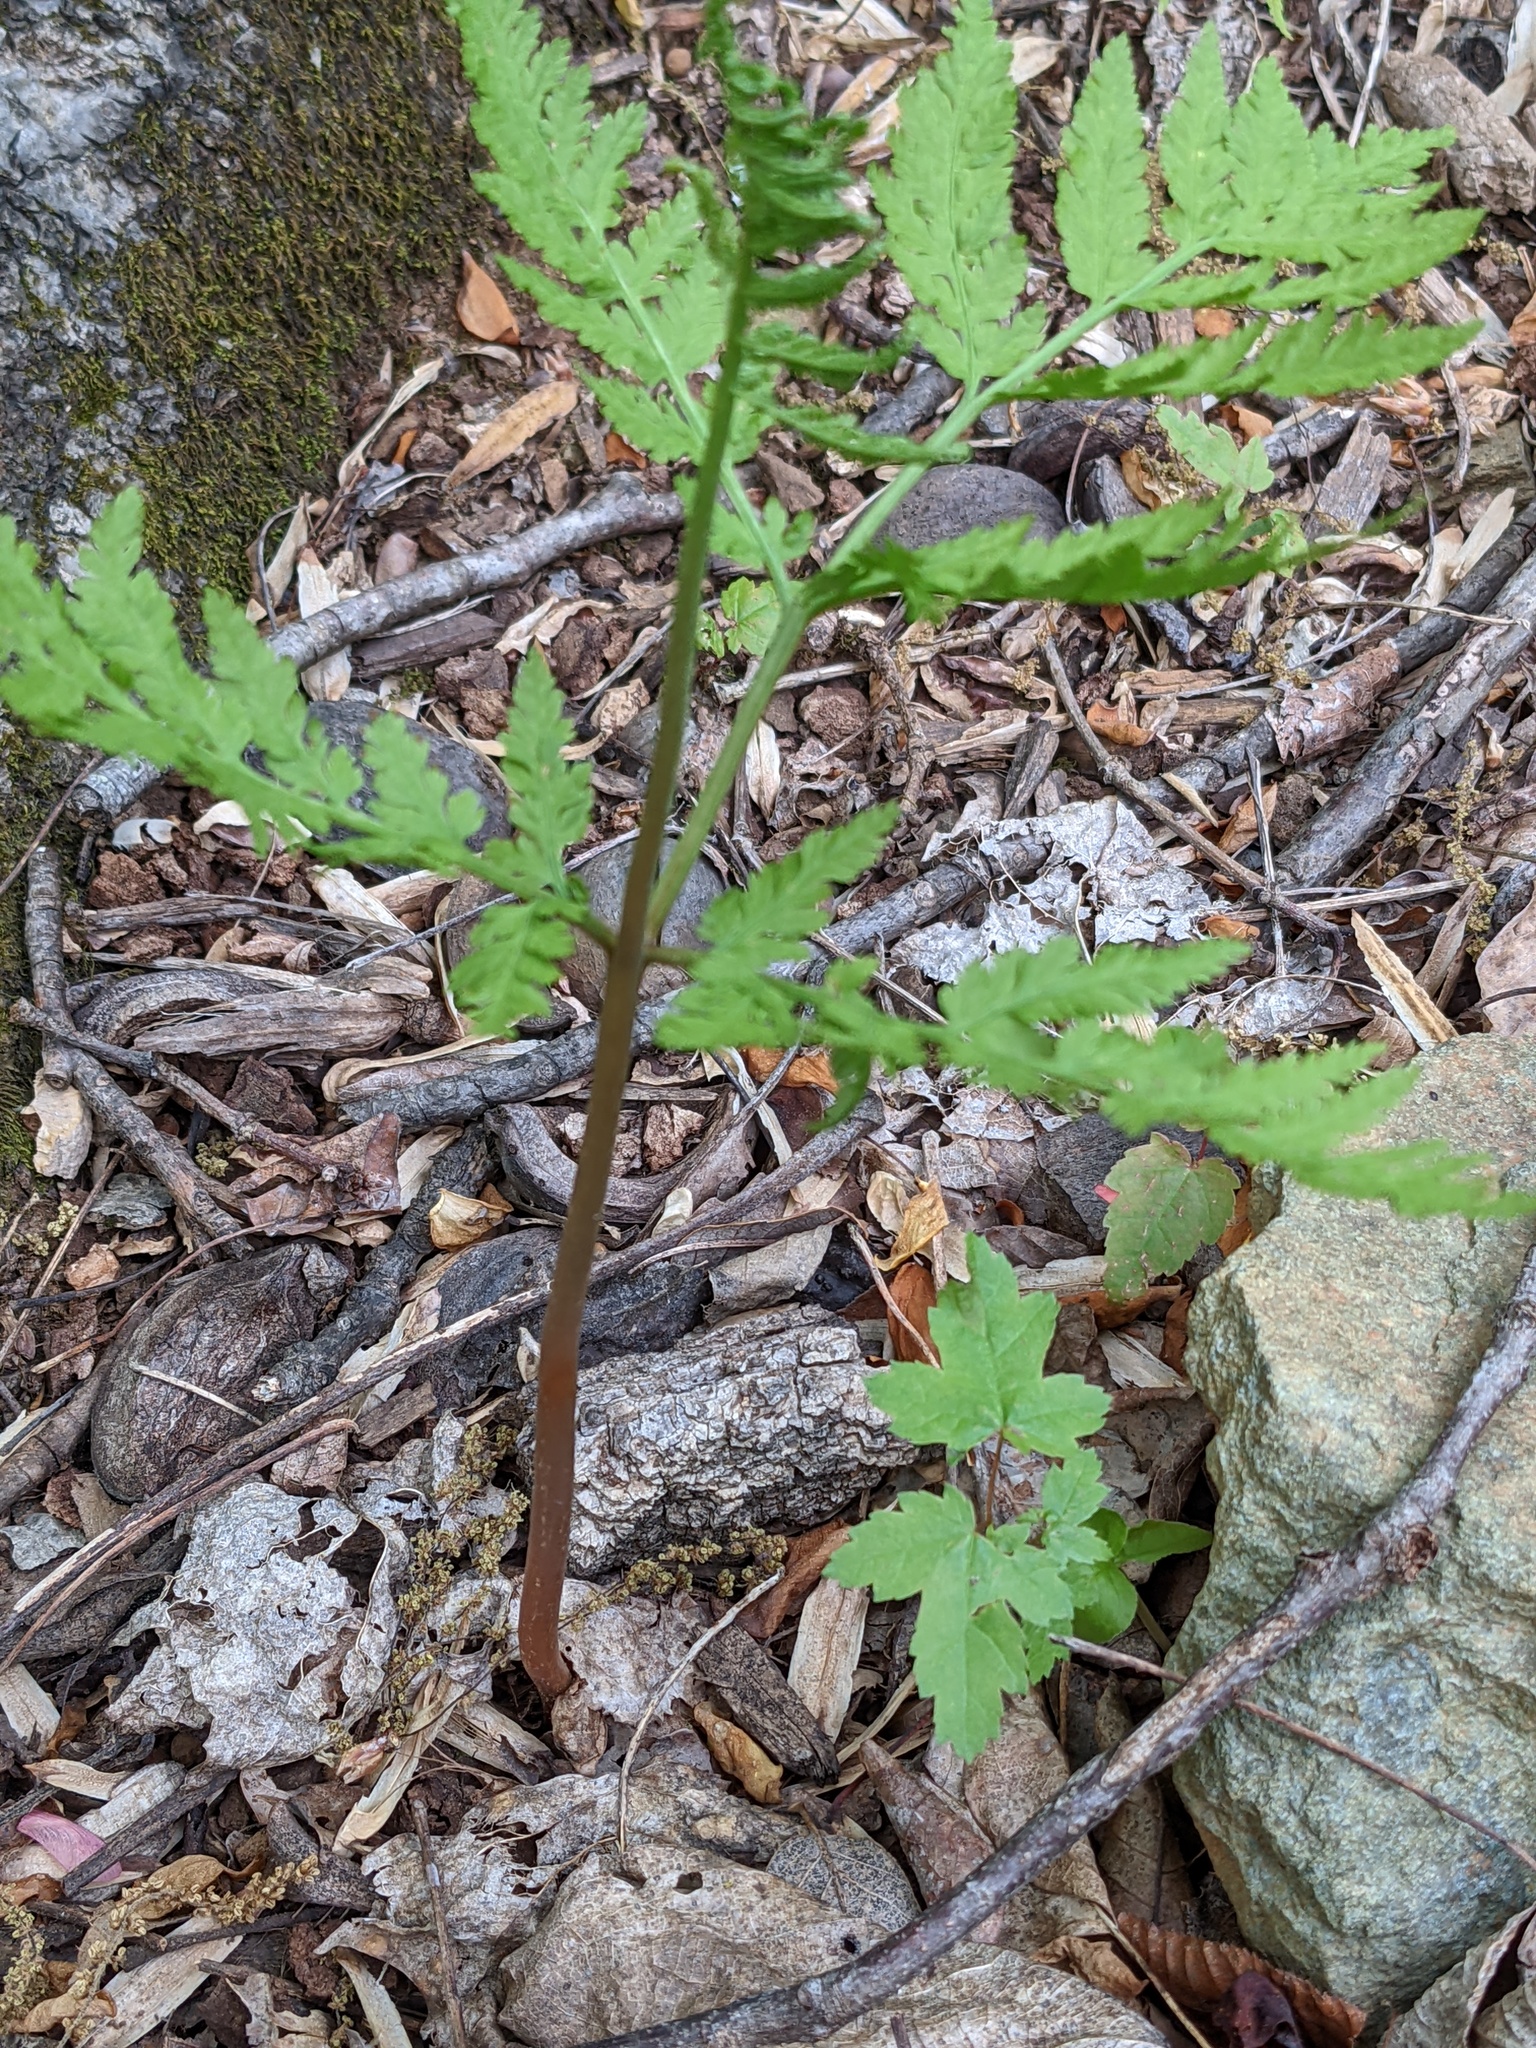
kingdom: Plantae
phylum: Tracheophyta
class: Polypodiopsida
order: Ophioglossales
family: Ophioglossaceae
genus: Botrypus
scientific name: Botrypus virginianus
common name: Common grapefern
